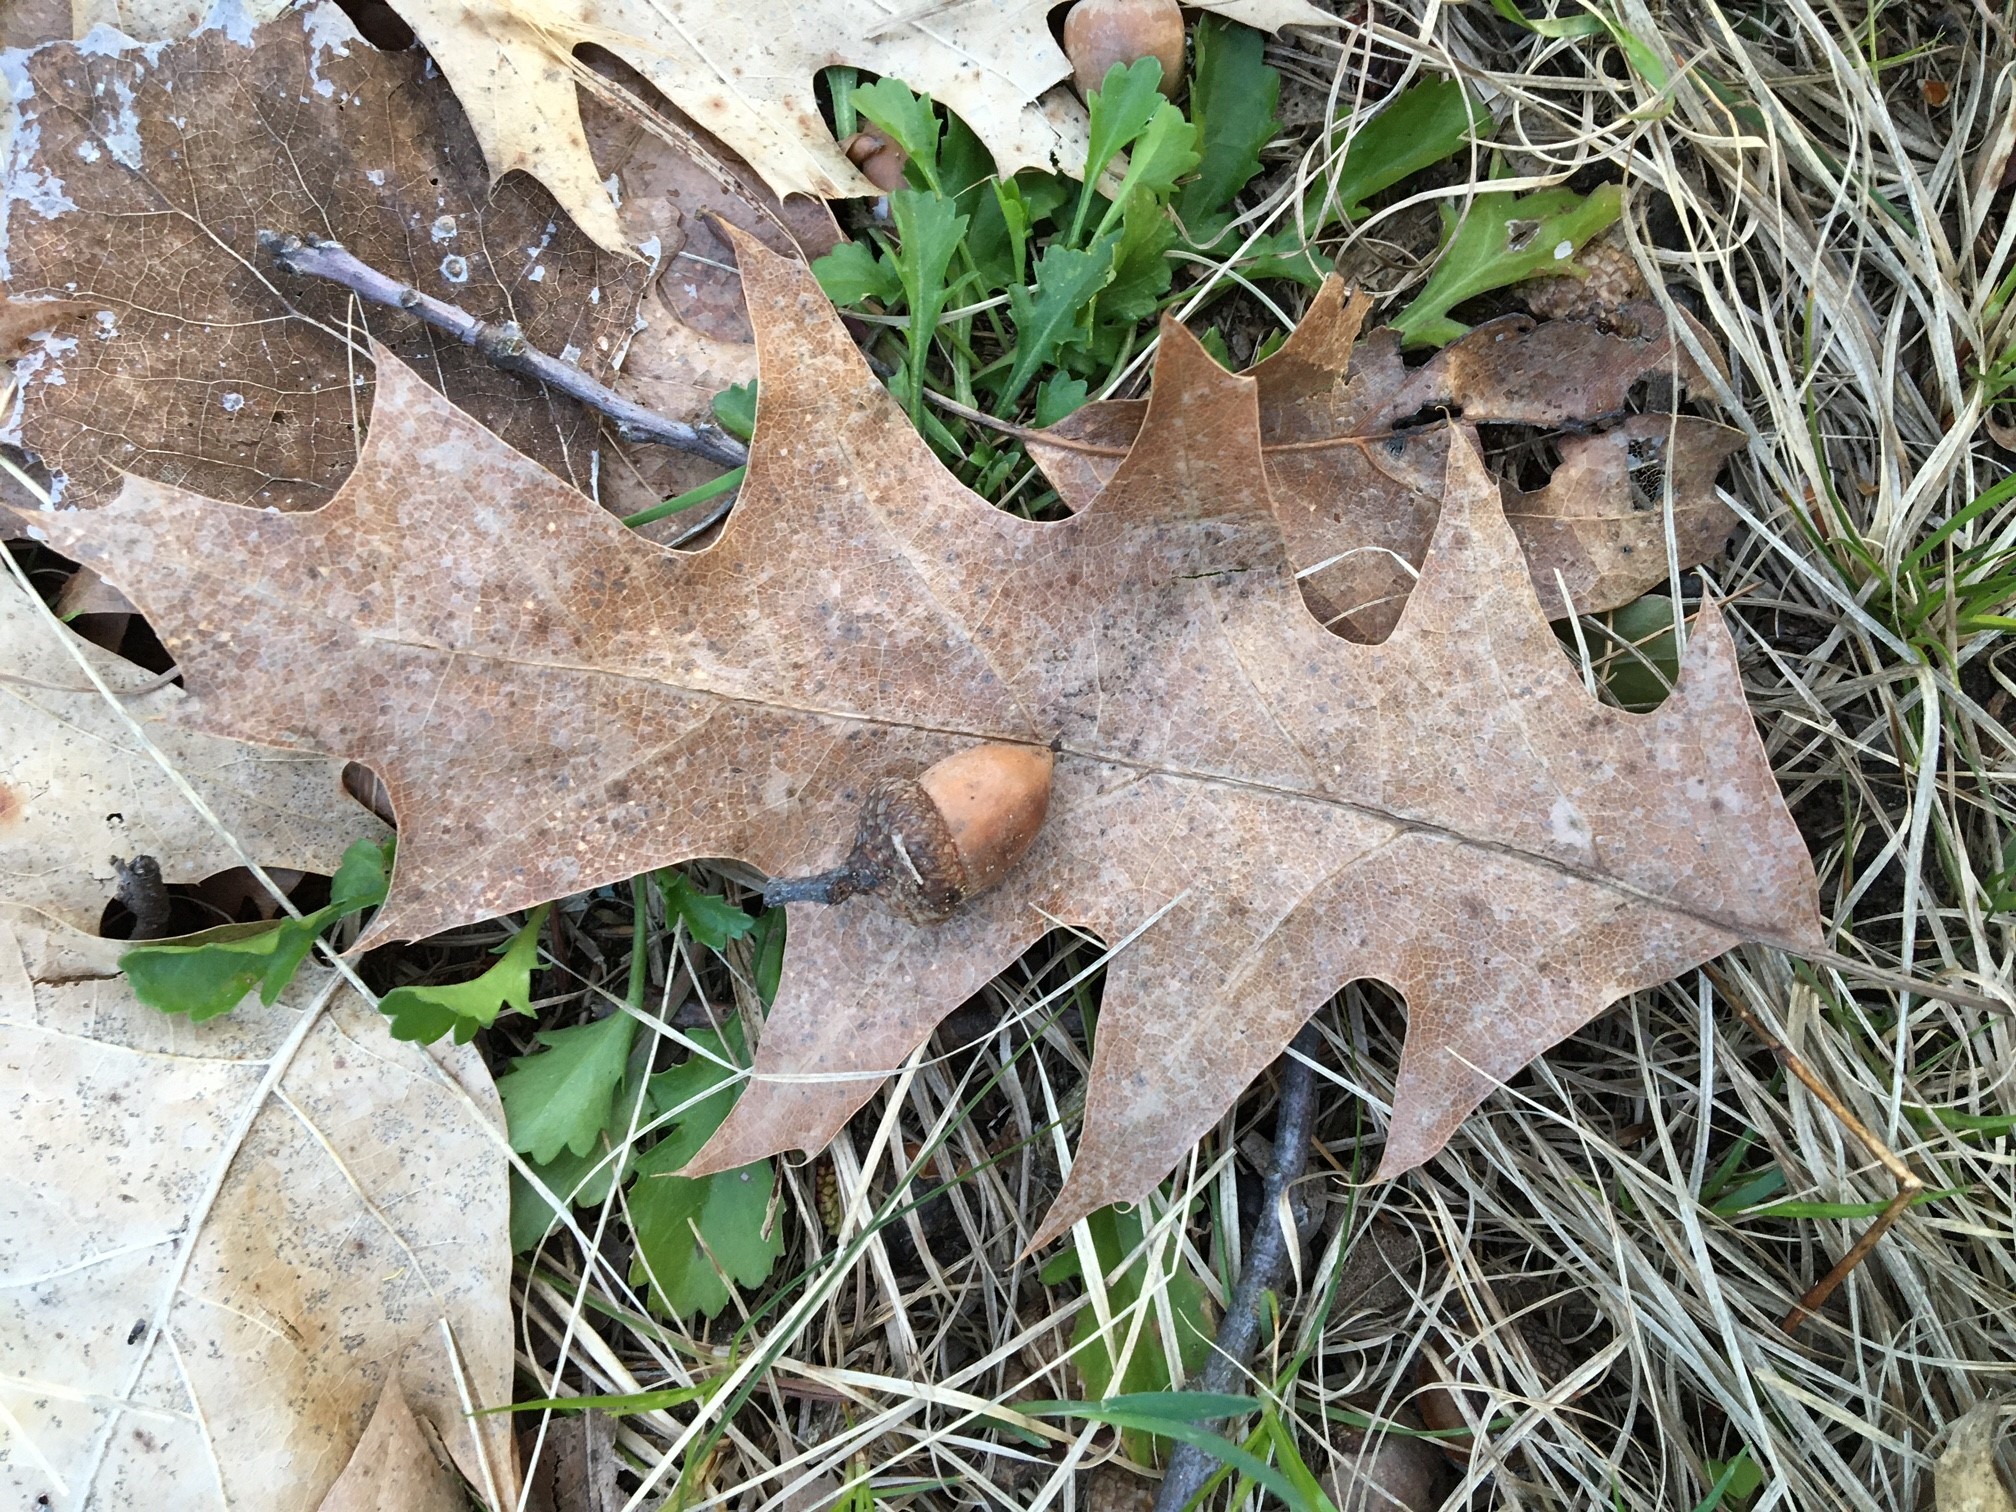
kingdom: Plantae
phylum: Tracheophyta
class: Magnoliopsida
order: Fagales
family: Fagaceae
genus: Quercus
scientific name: Quercus rubra
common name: Red oak
